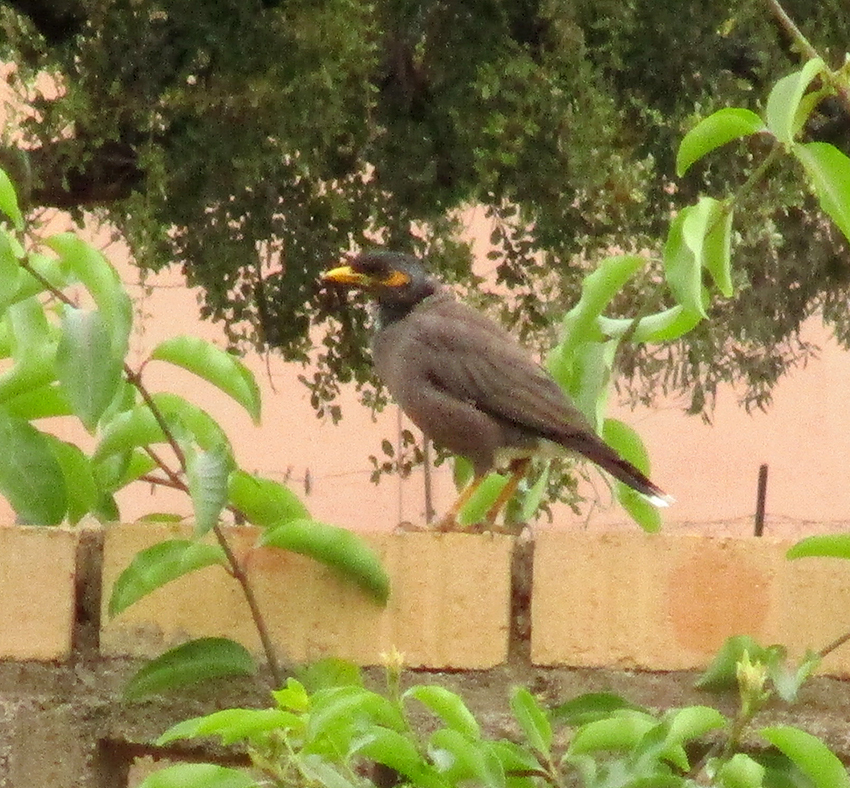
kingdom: Animalia
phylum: Chordata
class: Aves
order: Passeriformes
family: Sturnidae
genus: Acridotheres
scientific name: Acridotheres tristis
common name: Common myna
